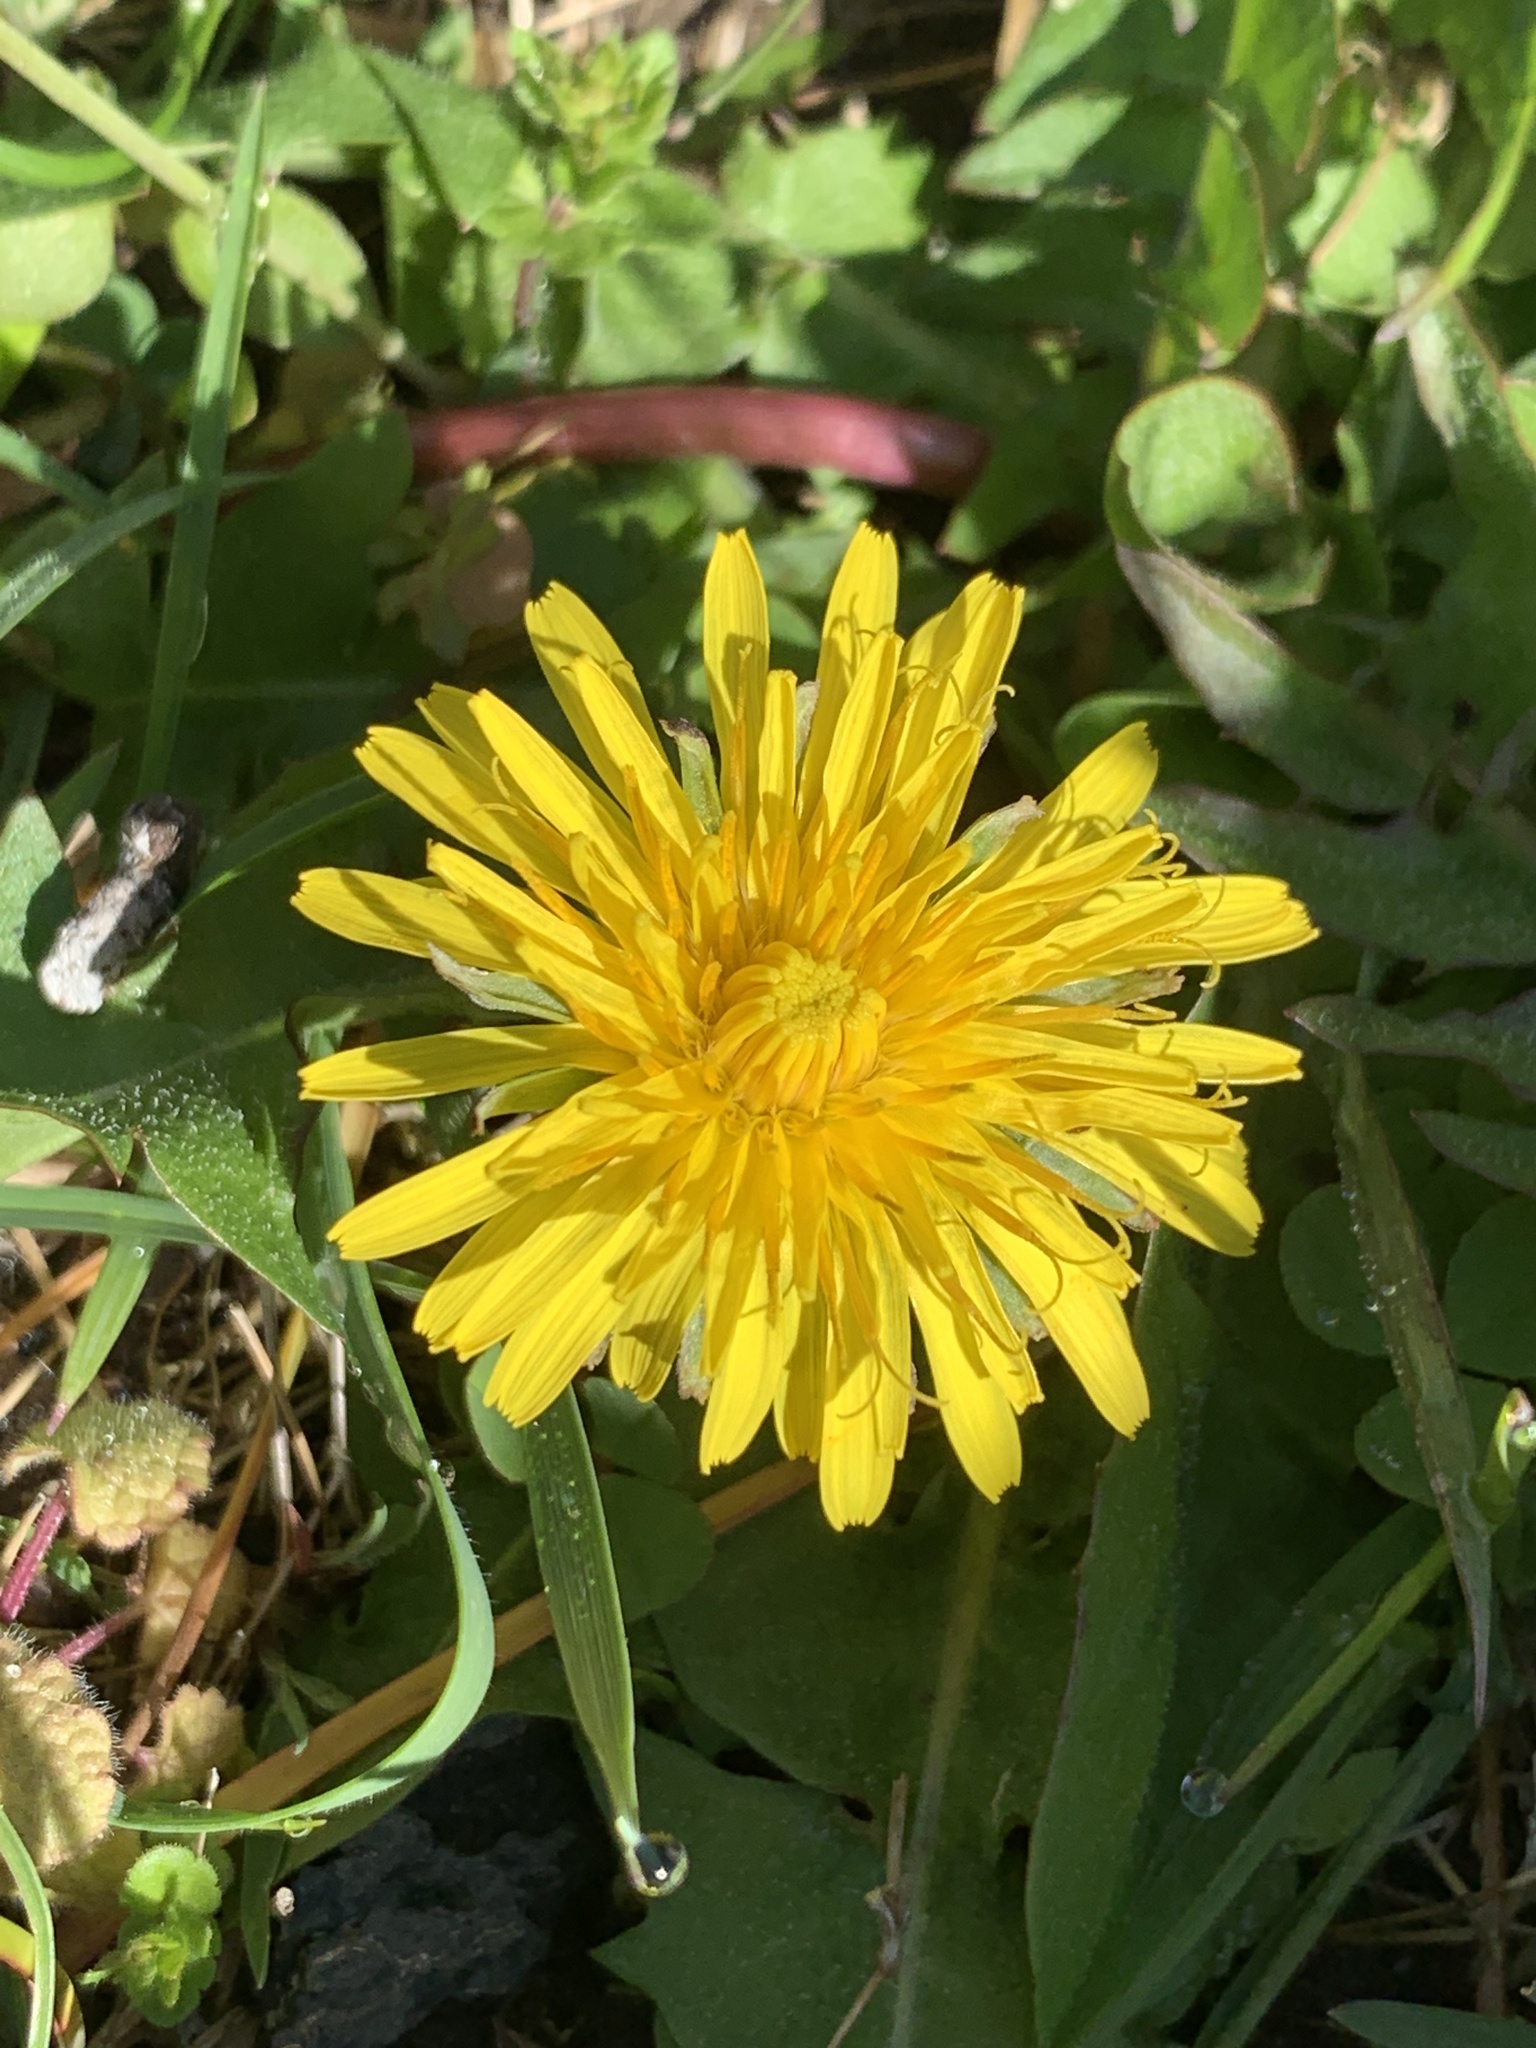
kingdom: Plantae
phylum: Tracheophyta
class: Magnoliopsida
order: Asterales
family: Asteraceae
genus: Taraxacum
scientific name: Taraxacum officinale
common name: Common dandelion
